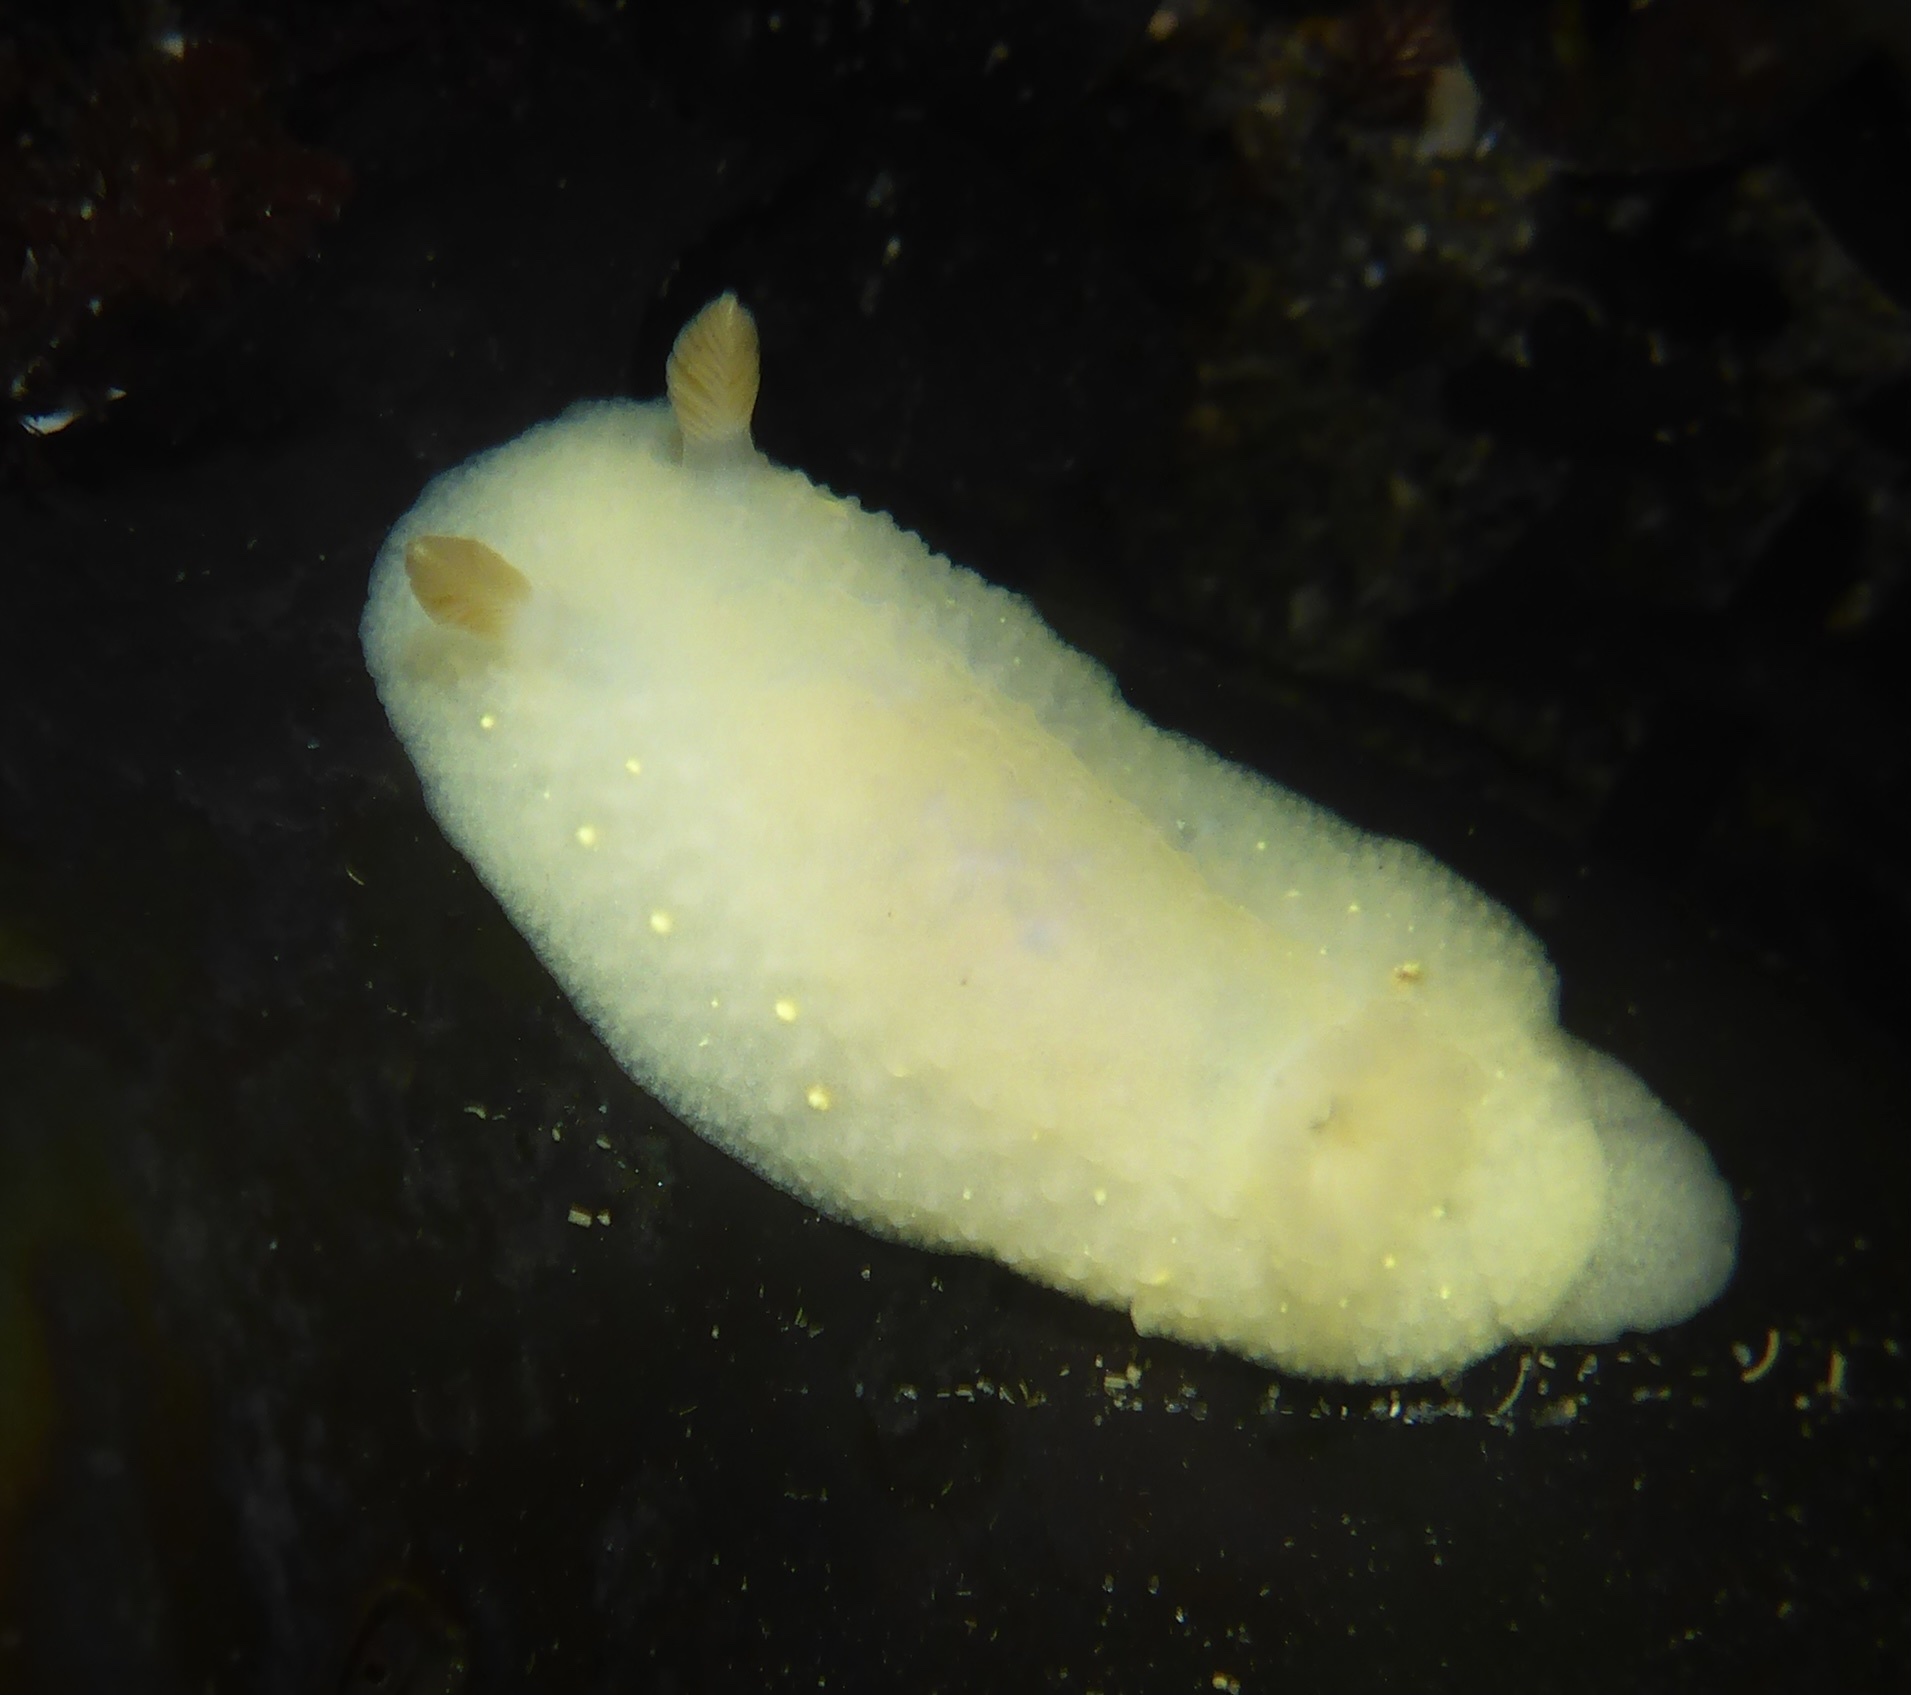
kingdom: Animalia
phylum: Mollusca
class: Gastropoda
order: Nudibranchia
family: Cadlinidae
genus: Cadlina
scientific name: Cadlina modesta
